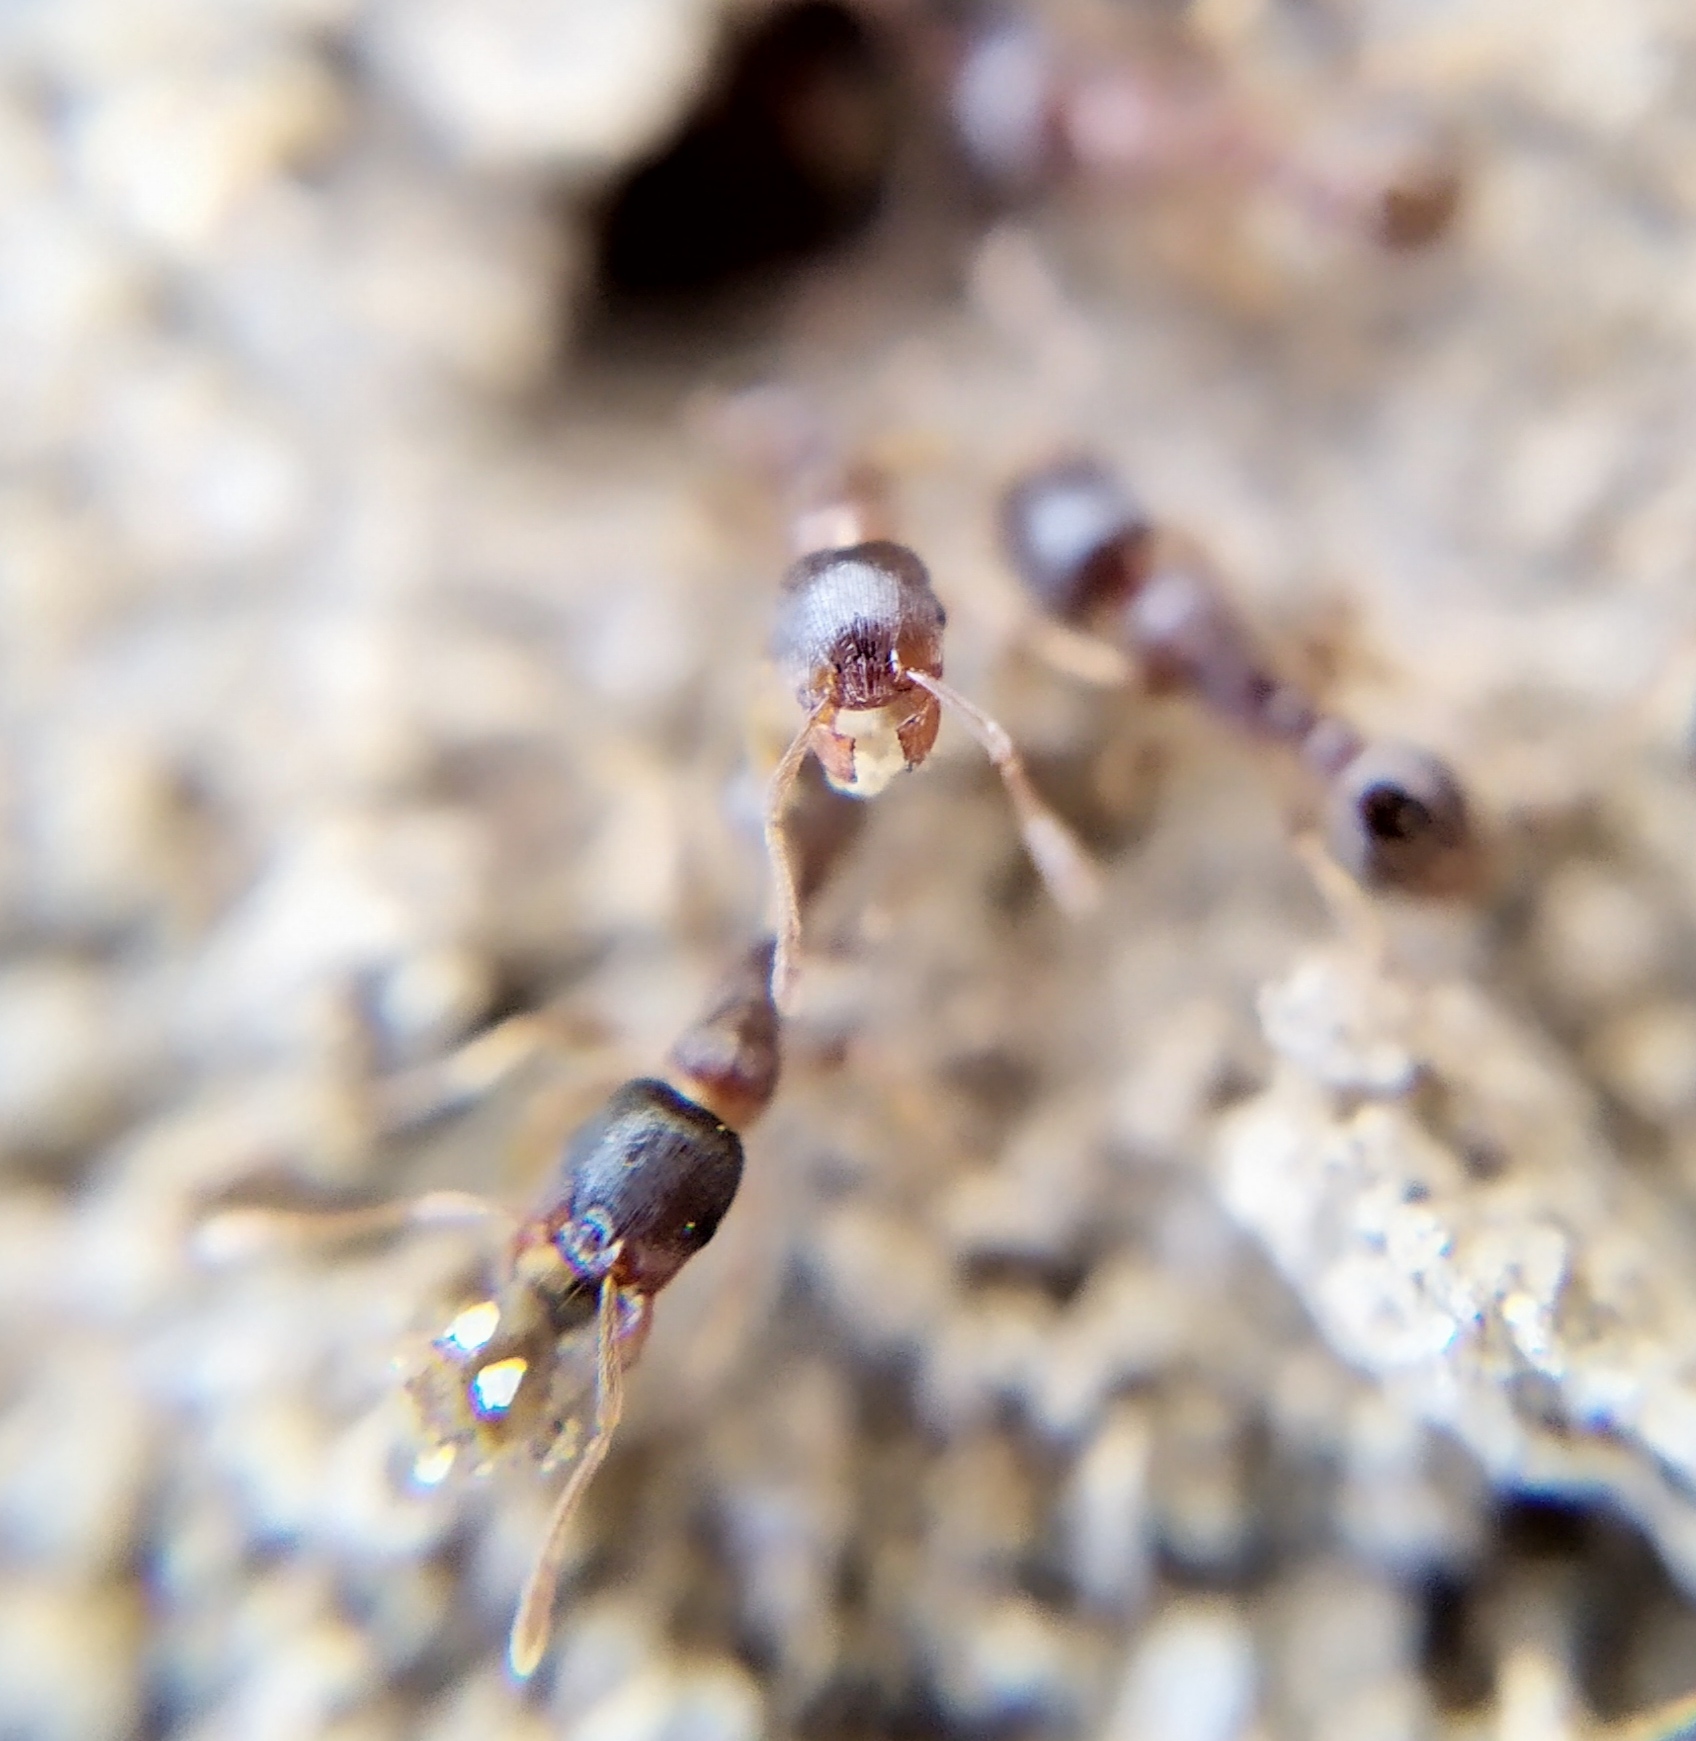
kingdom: Animalia
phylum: Arthropoda
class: Insecta
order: Hymenoptera
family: Formicidae
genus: Tetramorium
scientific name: Tetramorium
